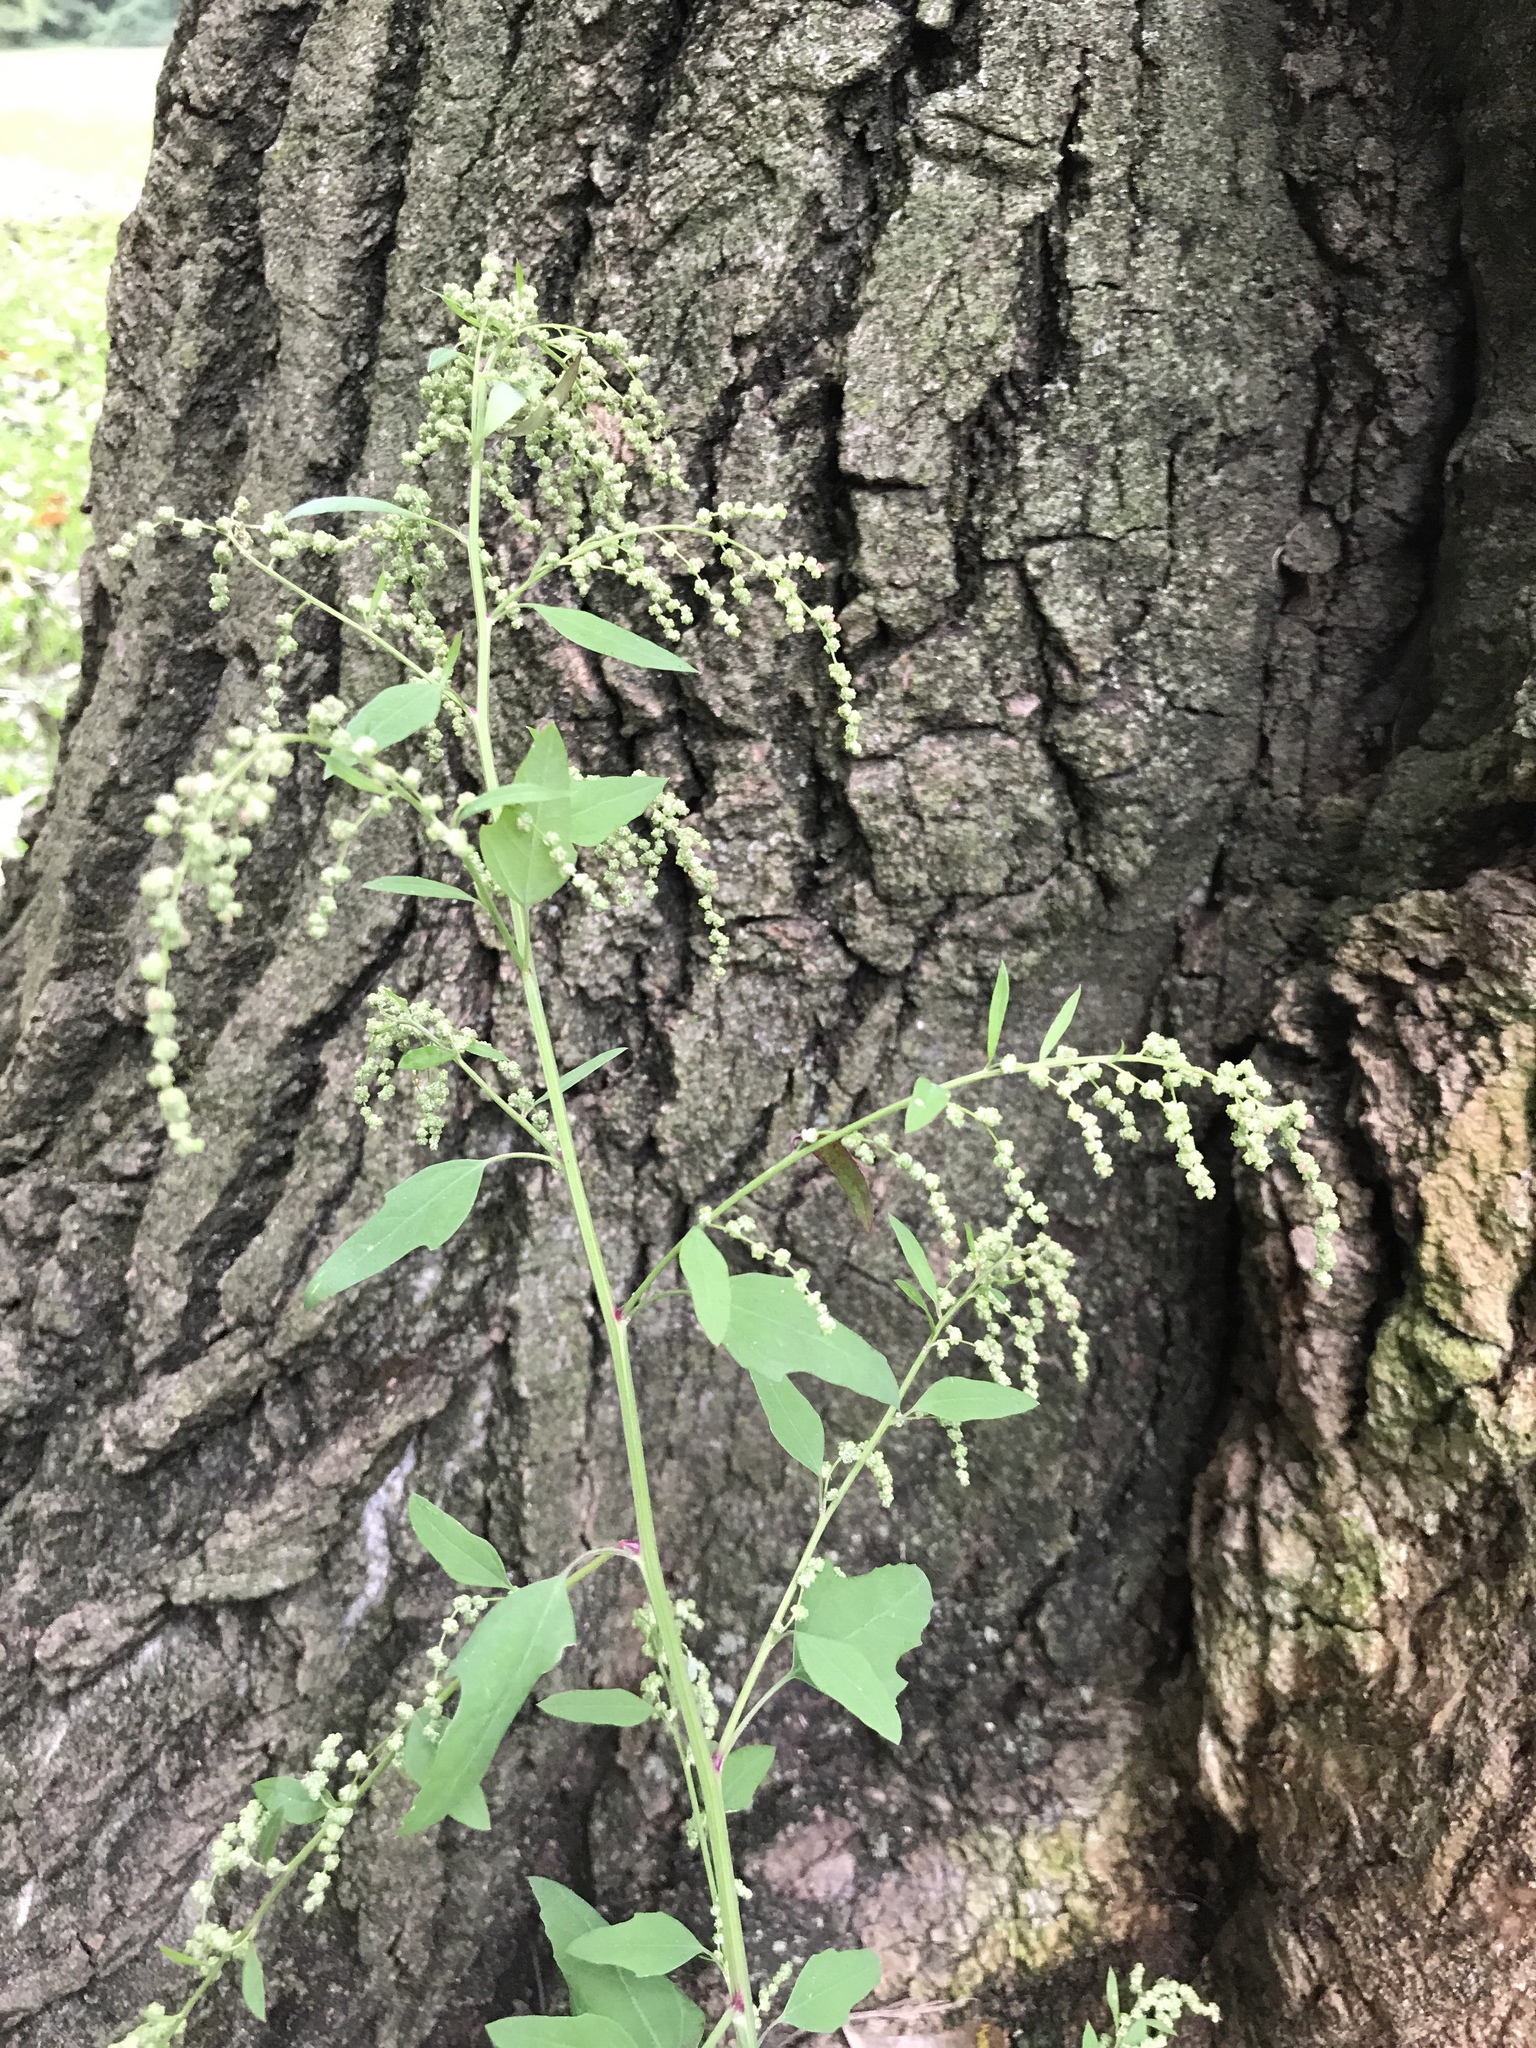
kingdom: Plantae
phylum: Tracheophyta
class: Magnoliopsida
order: Caryophyllales
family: Amaranthaceae
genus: Chenopodium
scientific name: Chenopodium album
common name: Fat-hen
